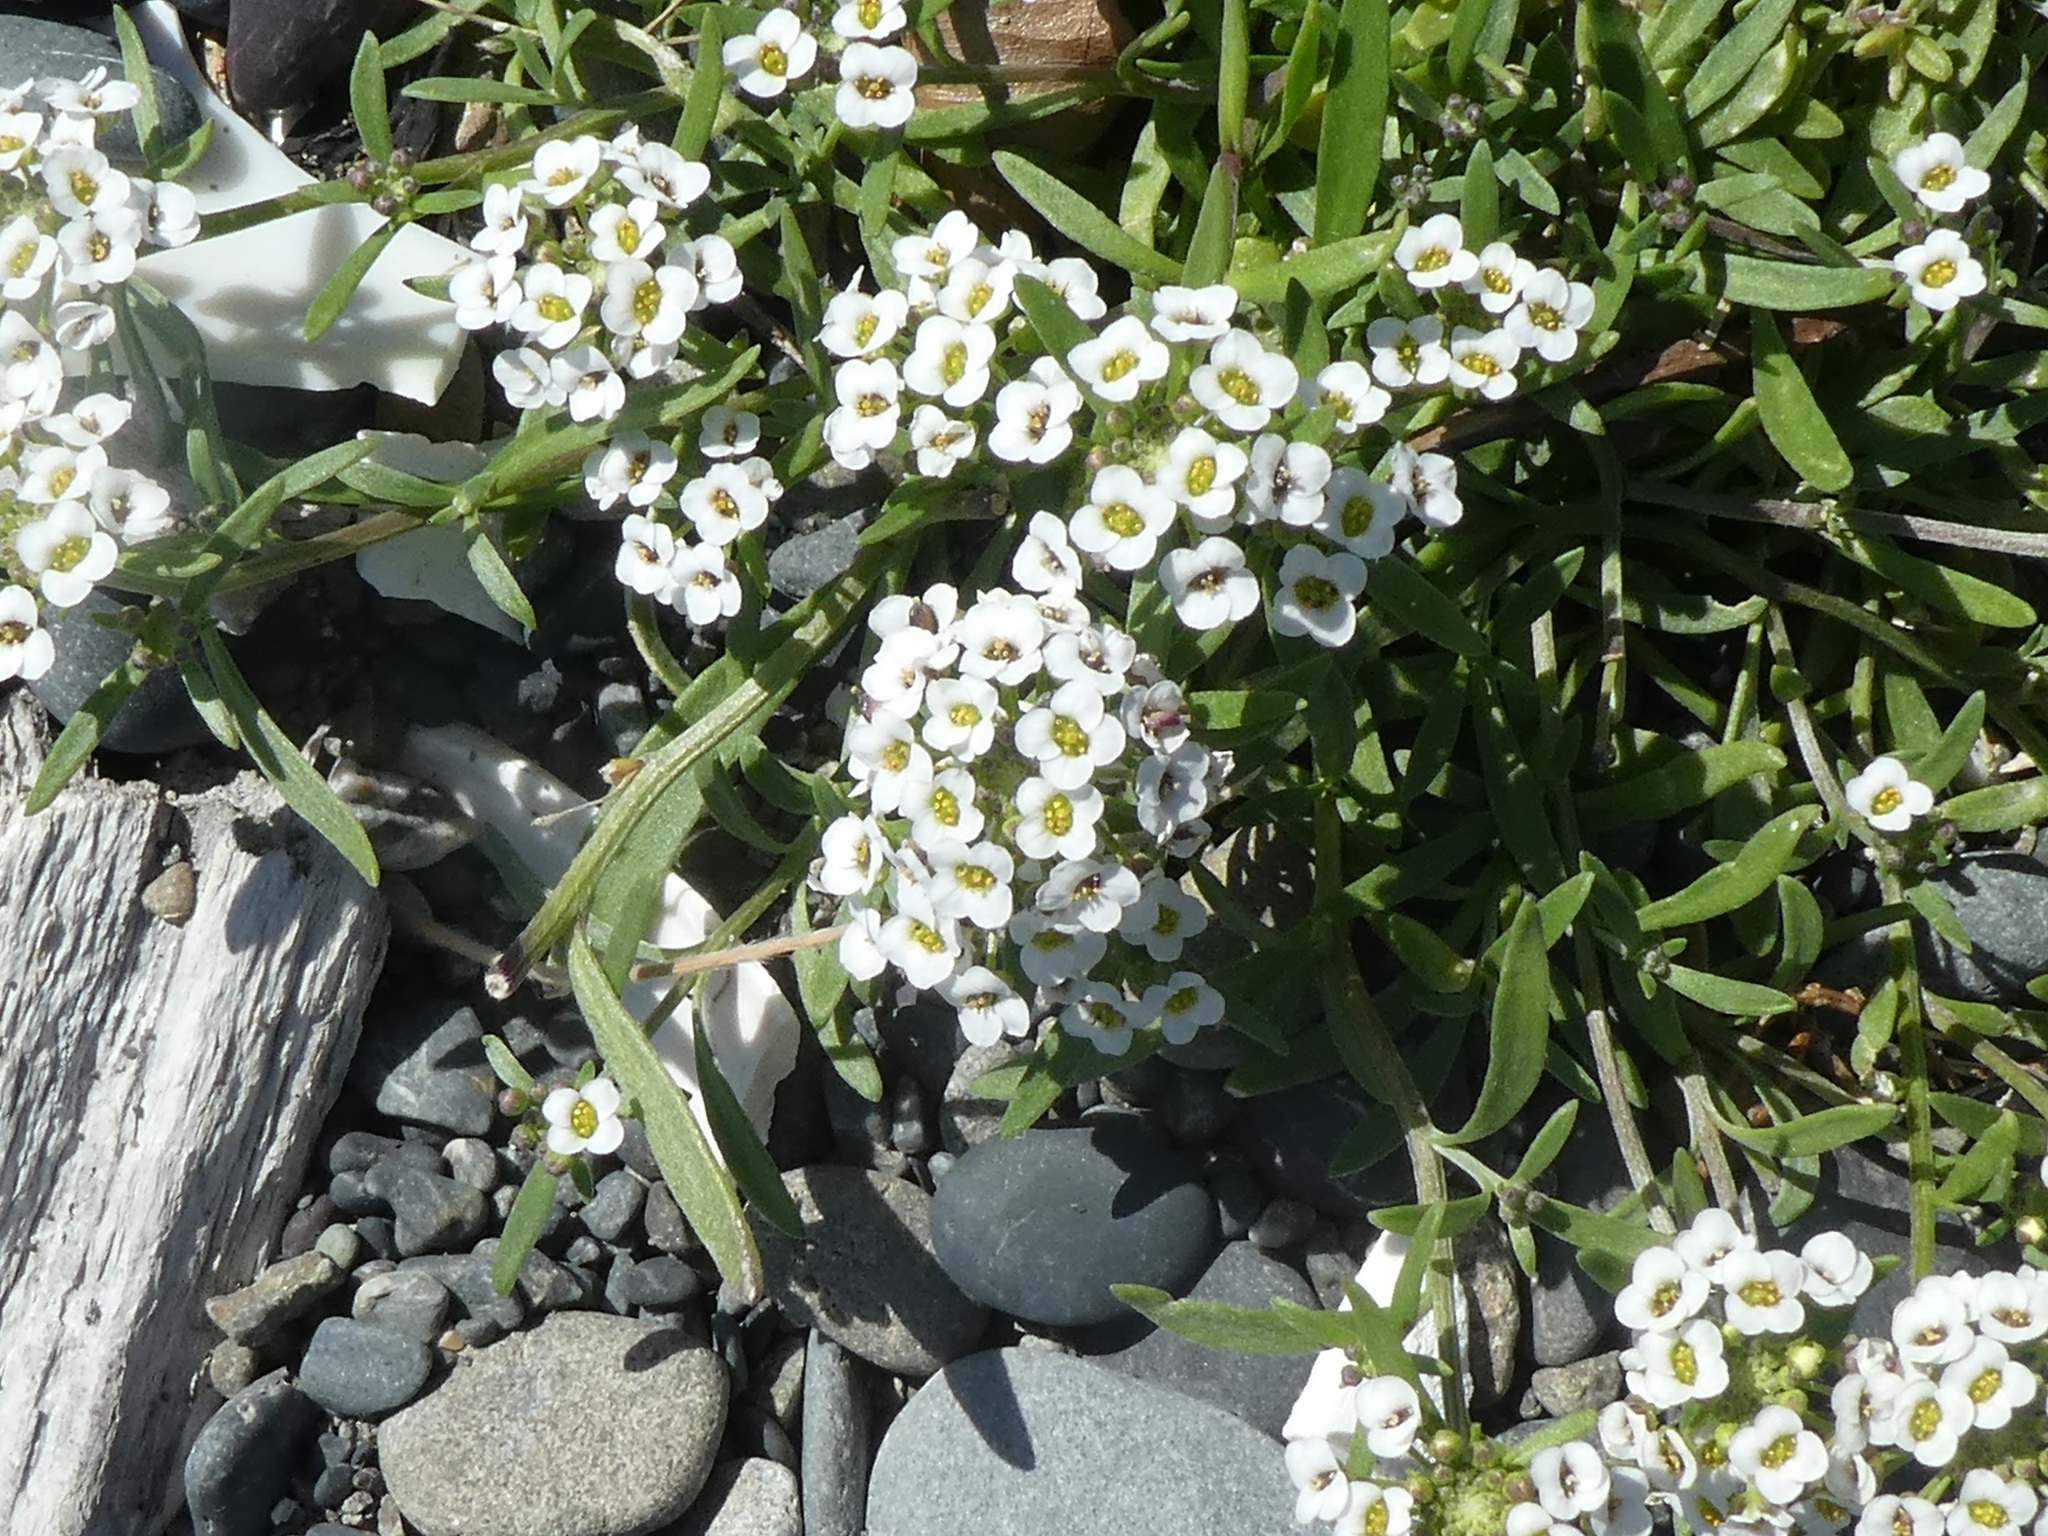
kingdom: Plantae
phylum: Tracheophyta
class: Magnoliopsida
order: Brassicales
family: Brassicaceae
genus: Lobularia
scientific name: Lobularia maritima
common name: Sweet alison
